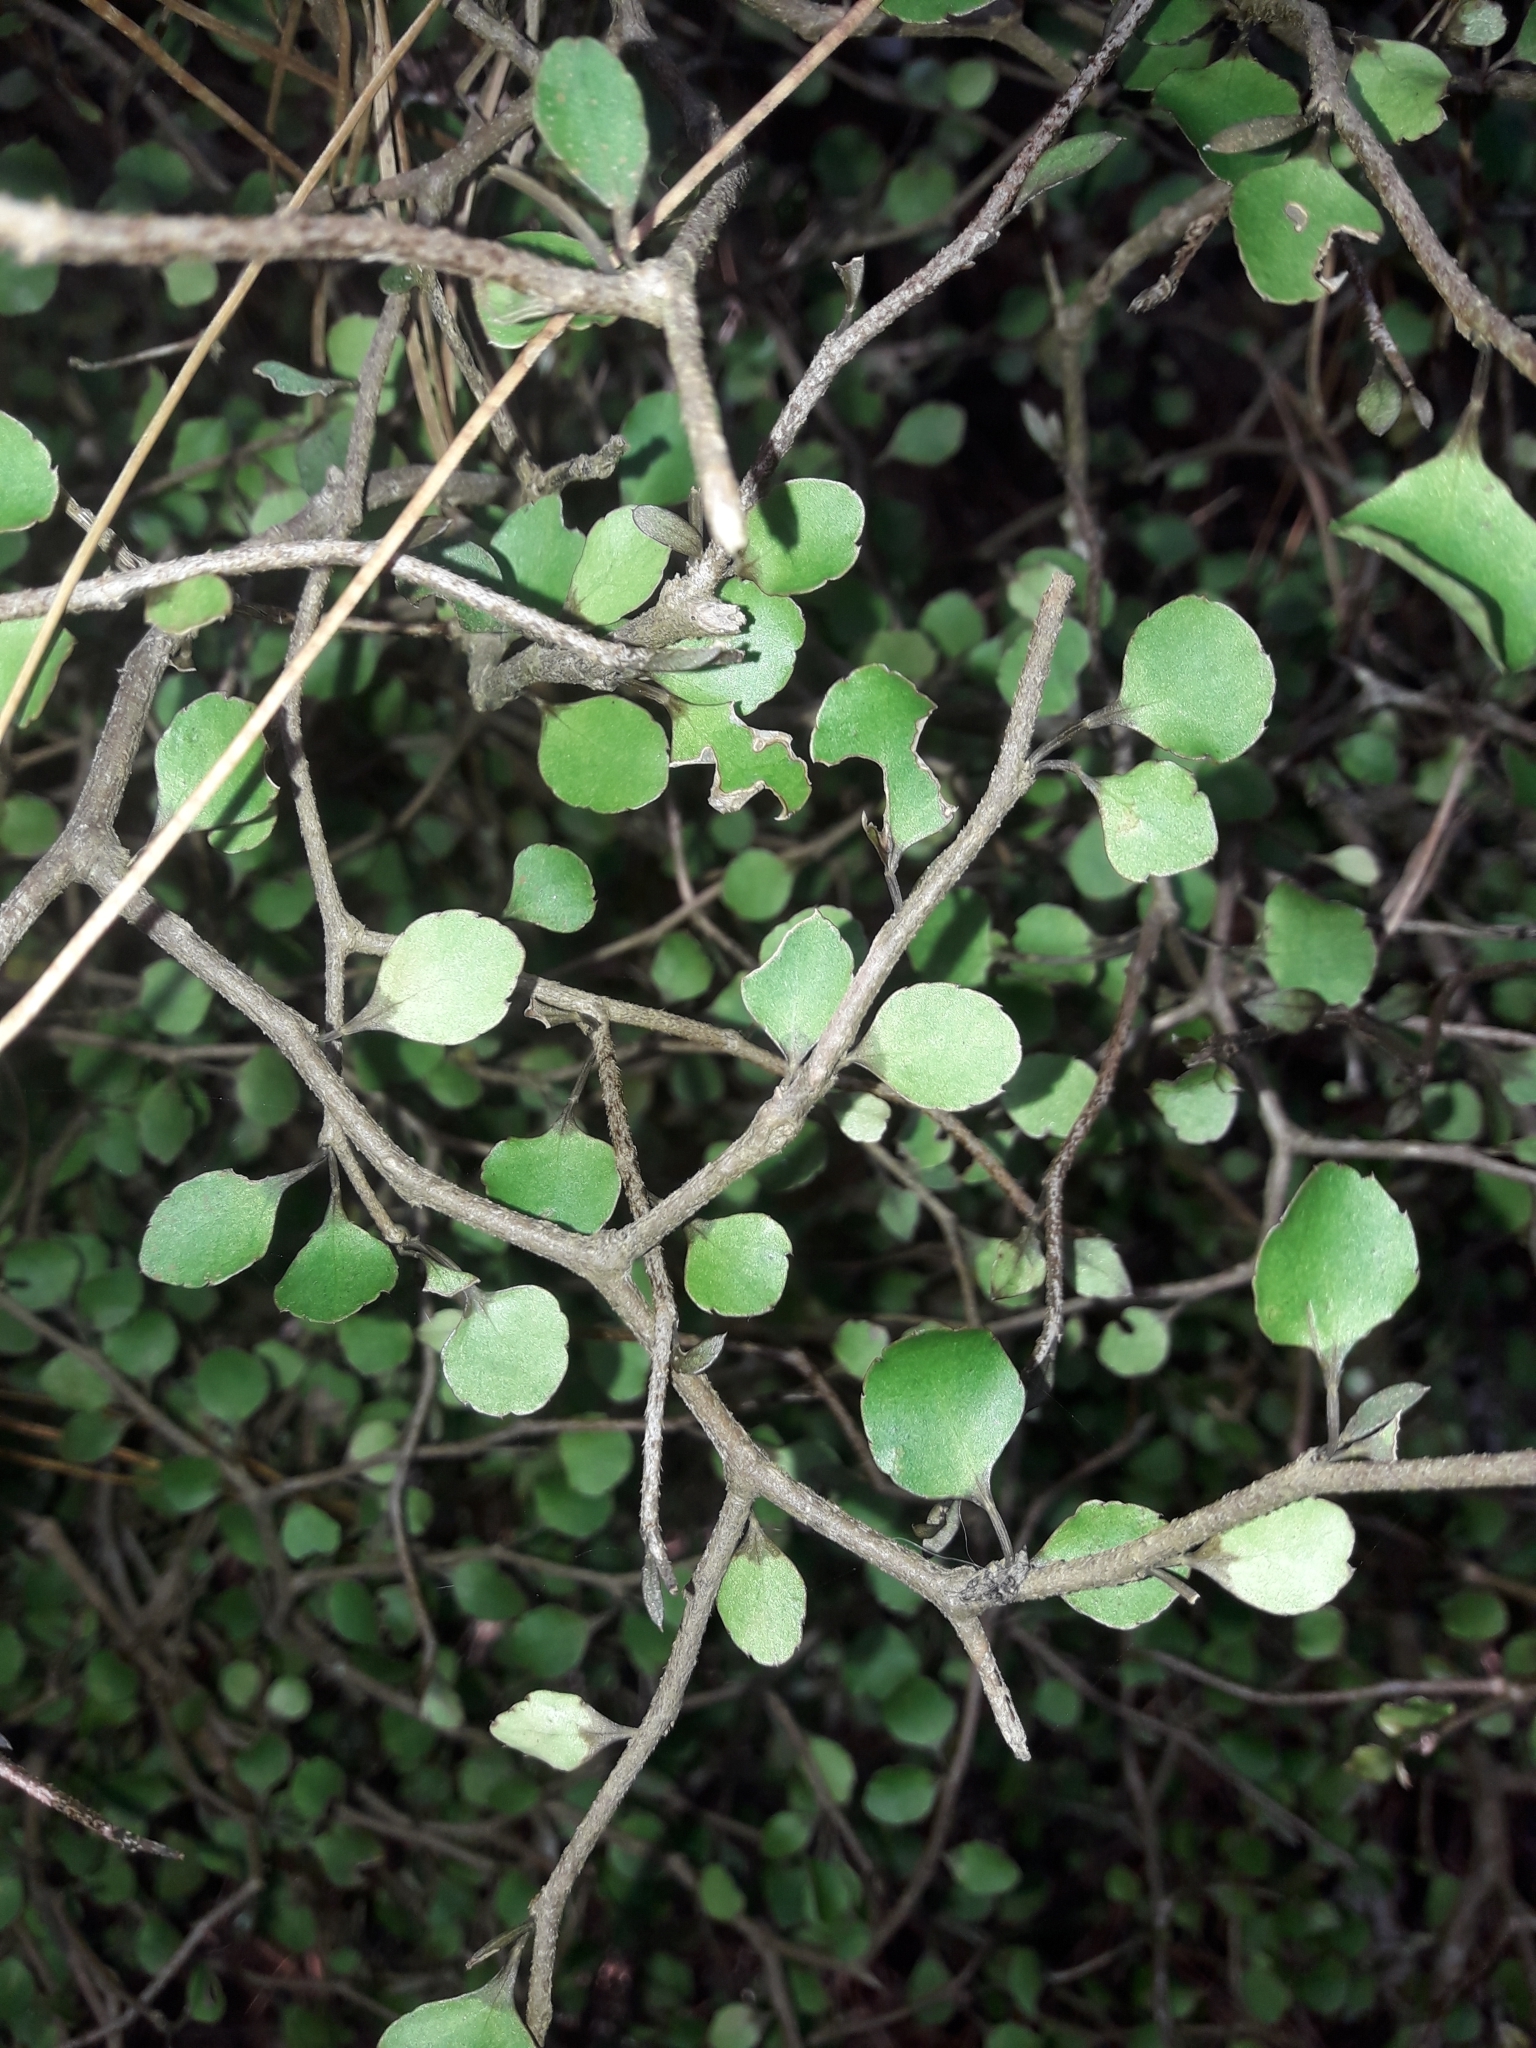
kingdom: Plantae
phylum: Tracheophyta
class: Magnoliopsida
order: Apiales
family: Araliaceae
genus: Raukaua
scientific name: Raukaua anomalus
